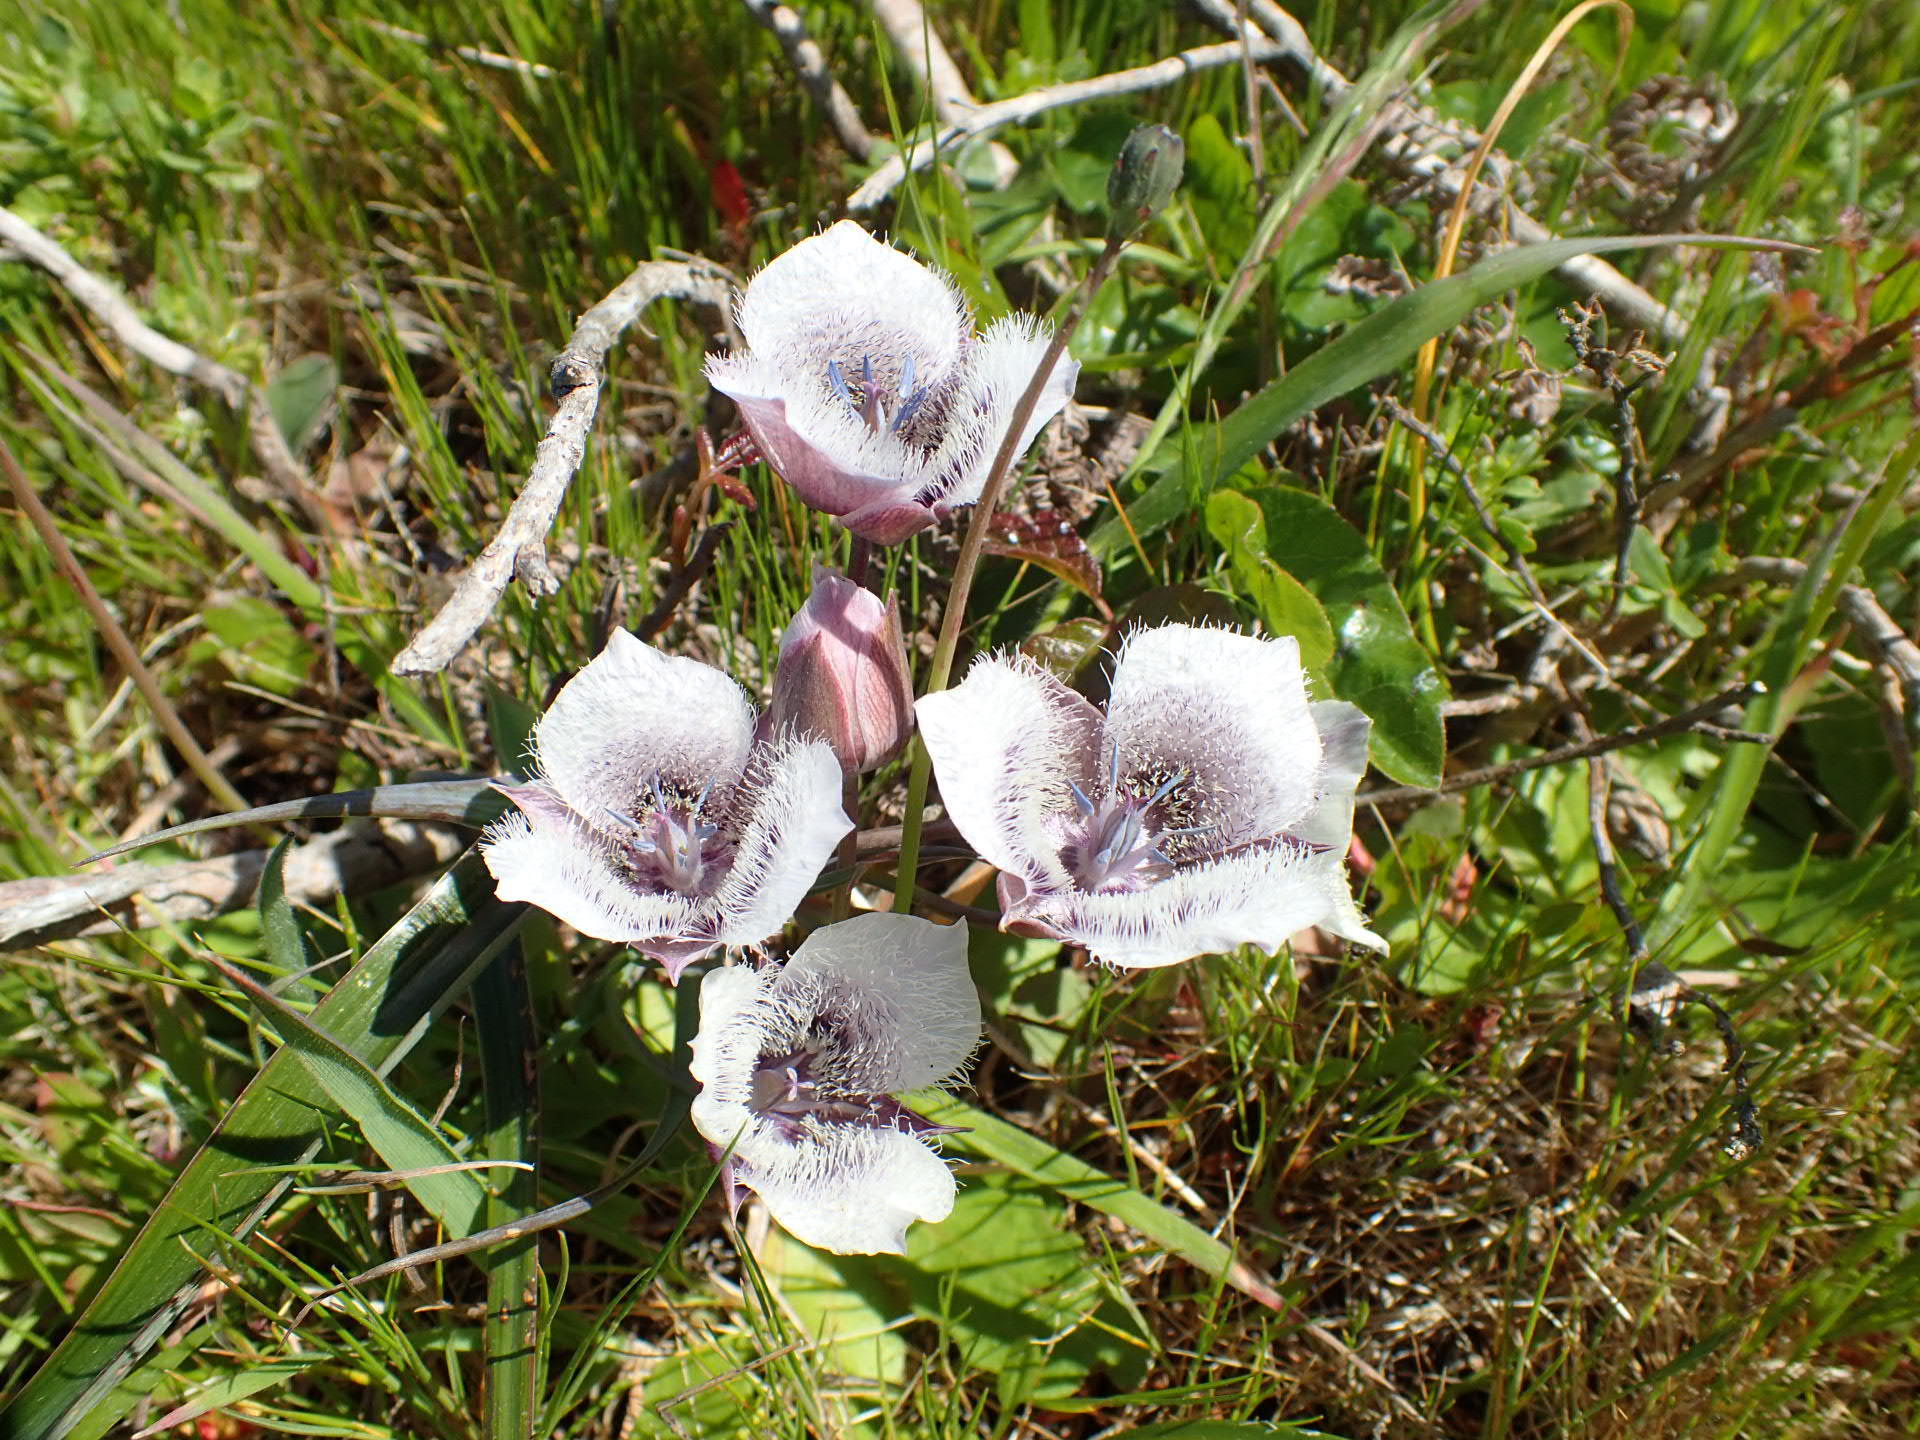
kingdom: Plantae
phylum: Tracheophyta
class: Liliopsida
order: Liliales
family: Liliaceae
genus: Calochortus
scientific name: Calochortus tolmiei
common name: Pussy-ears
